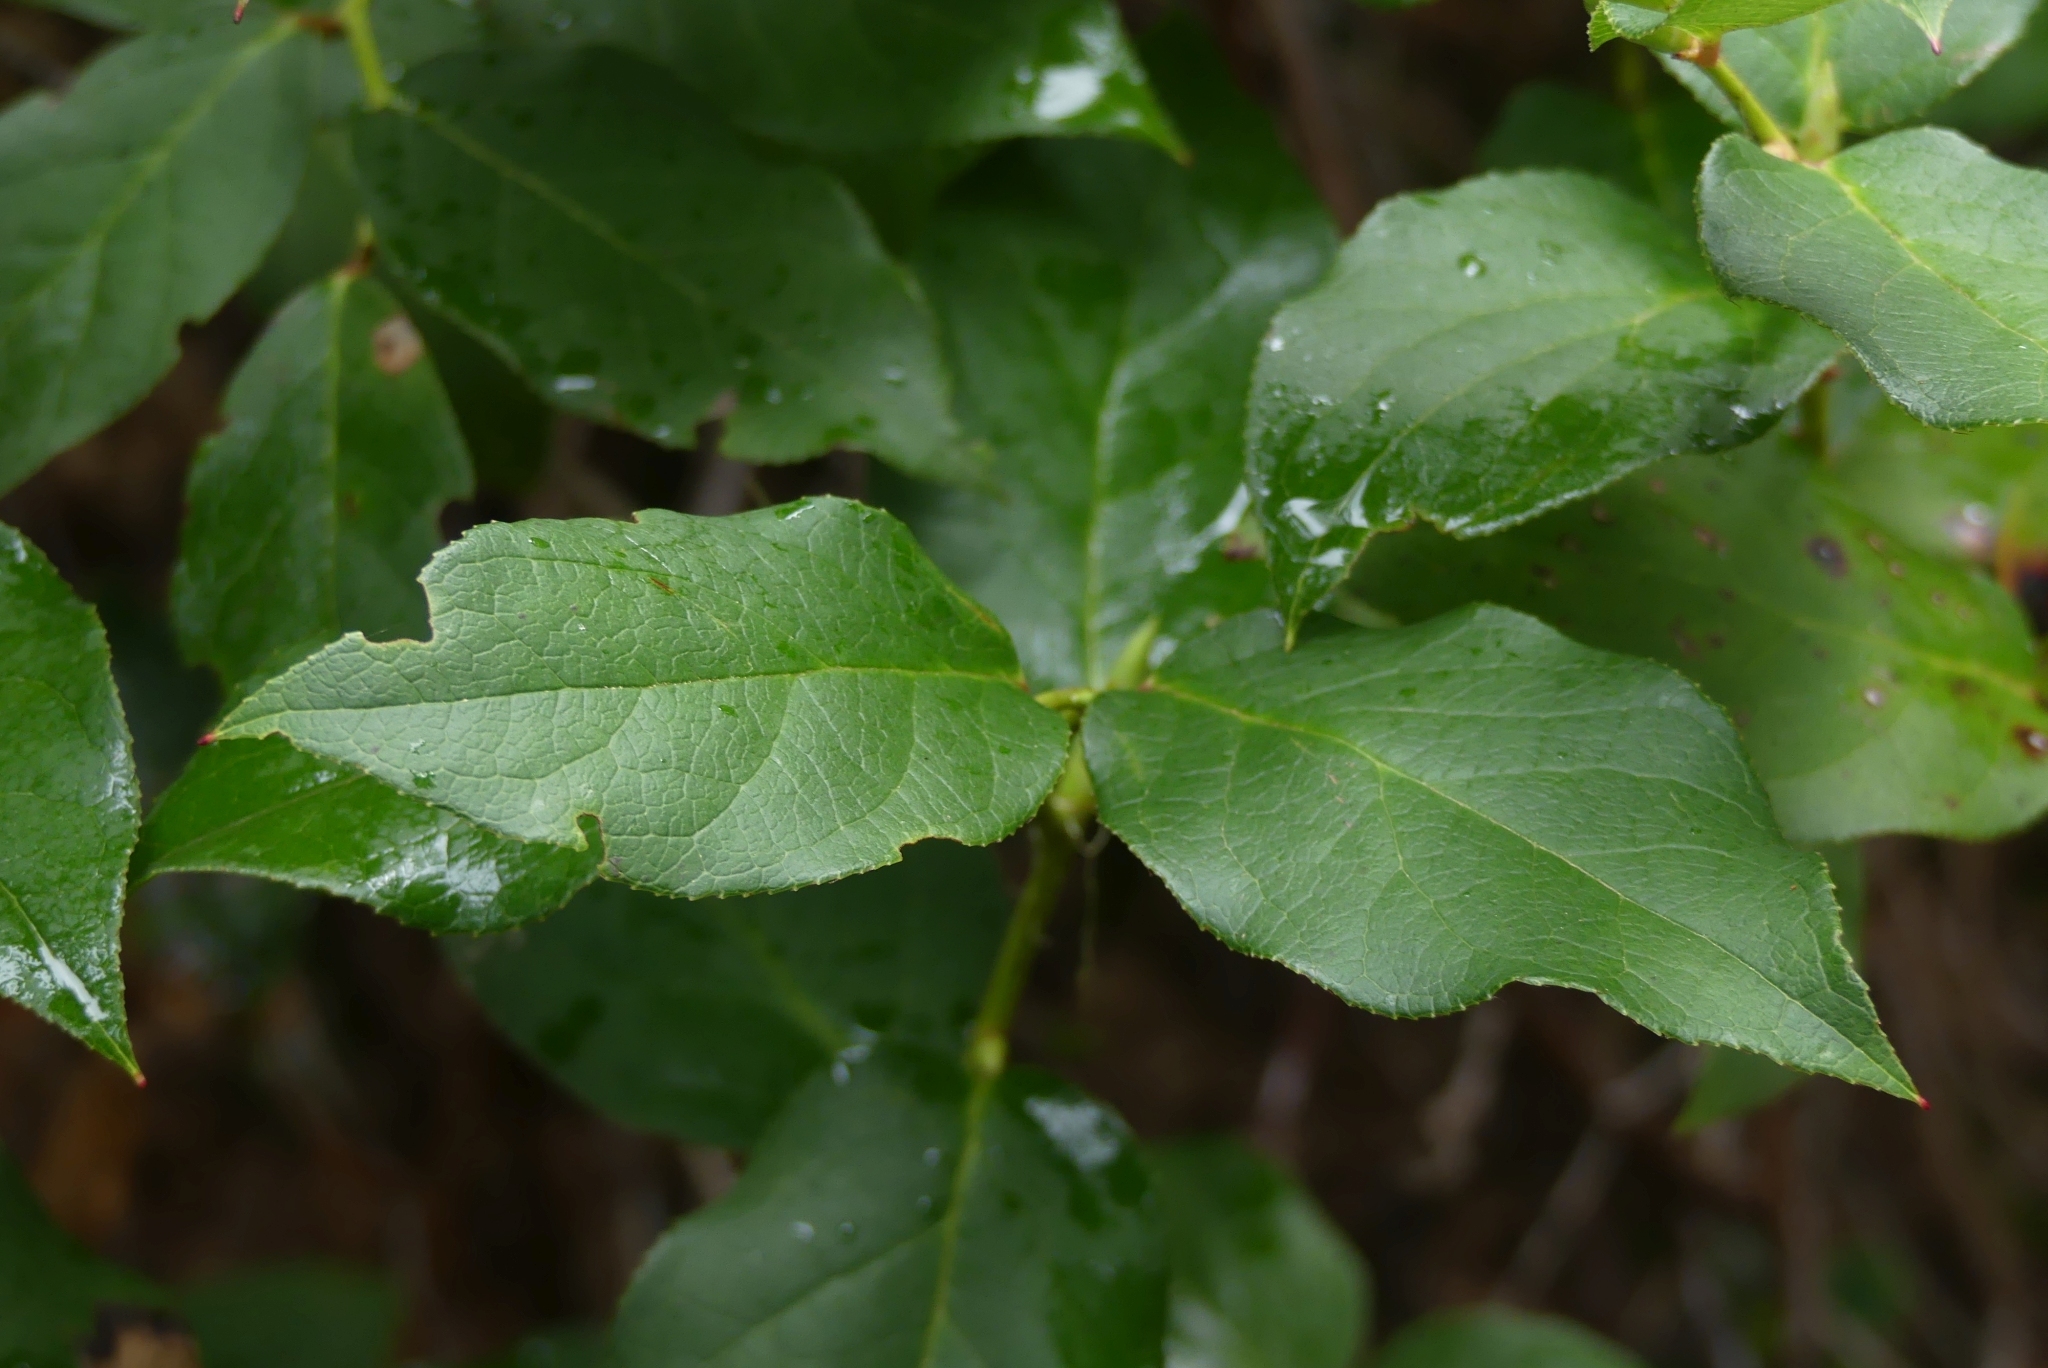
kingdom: Plantae
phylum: Tracheophyta
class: Magnoliopsida
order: Ericales
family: Ericaceae
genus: Gaultheria
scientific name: Gaultheria shallon
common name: Shallon
